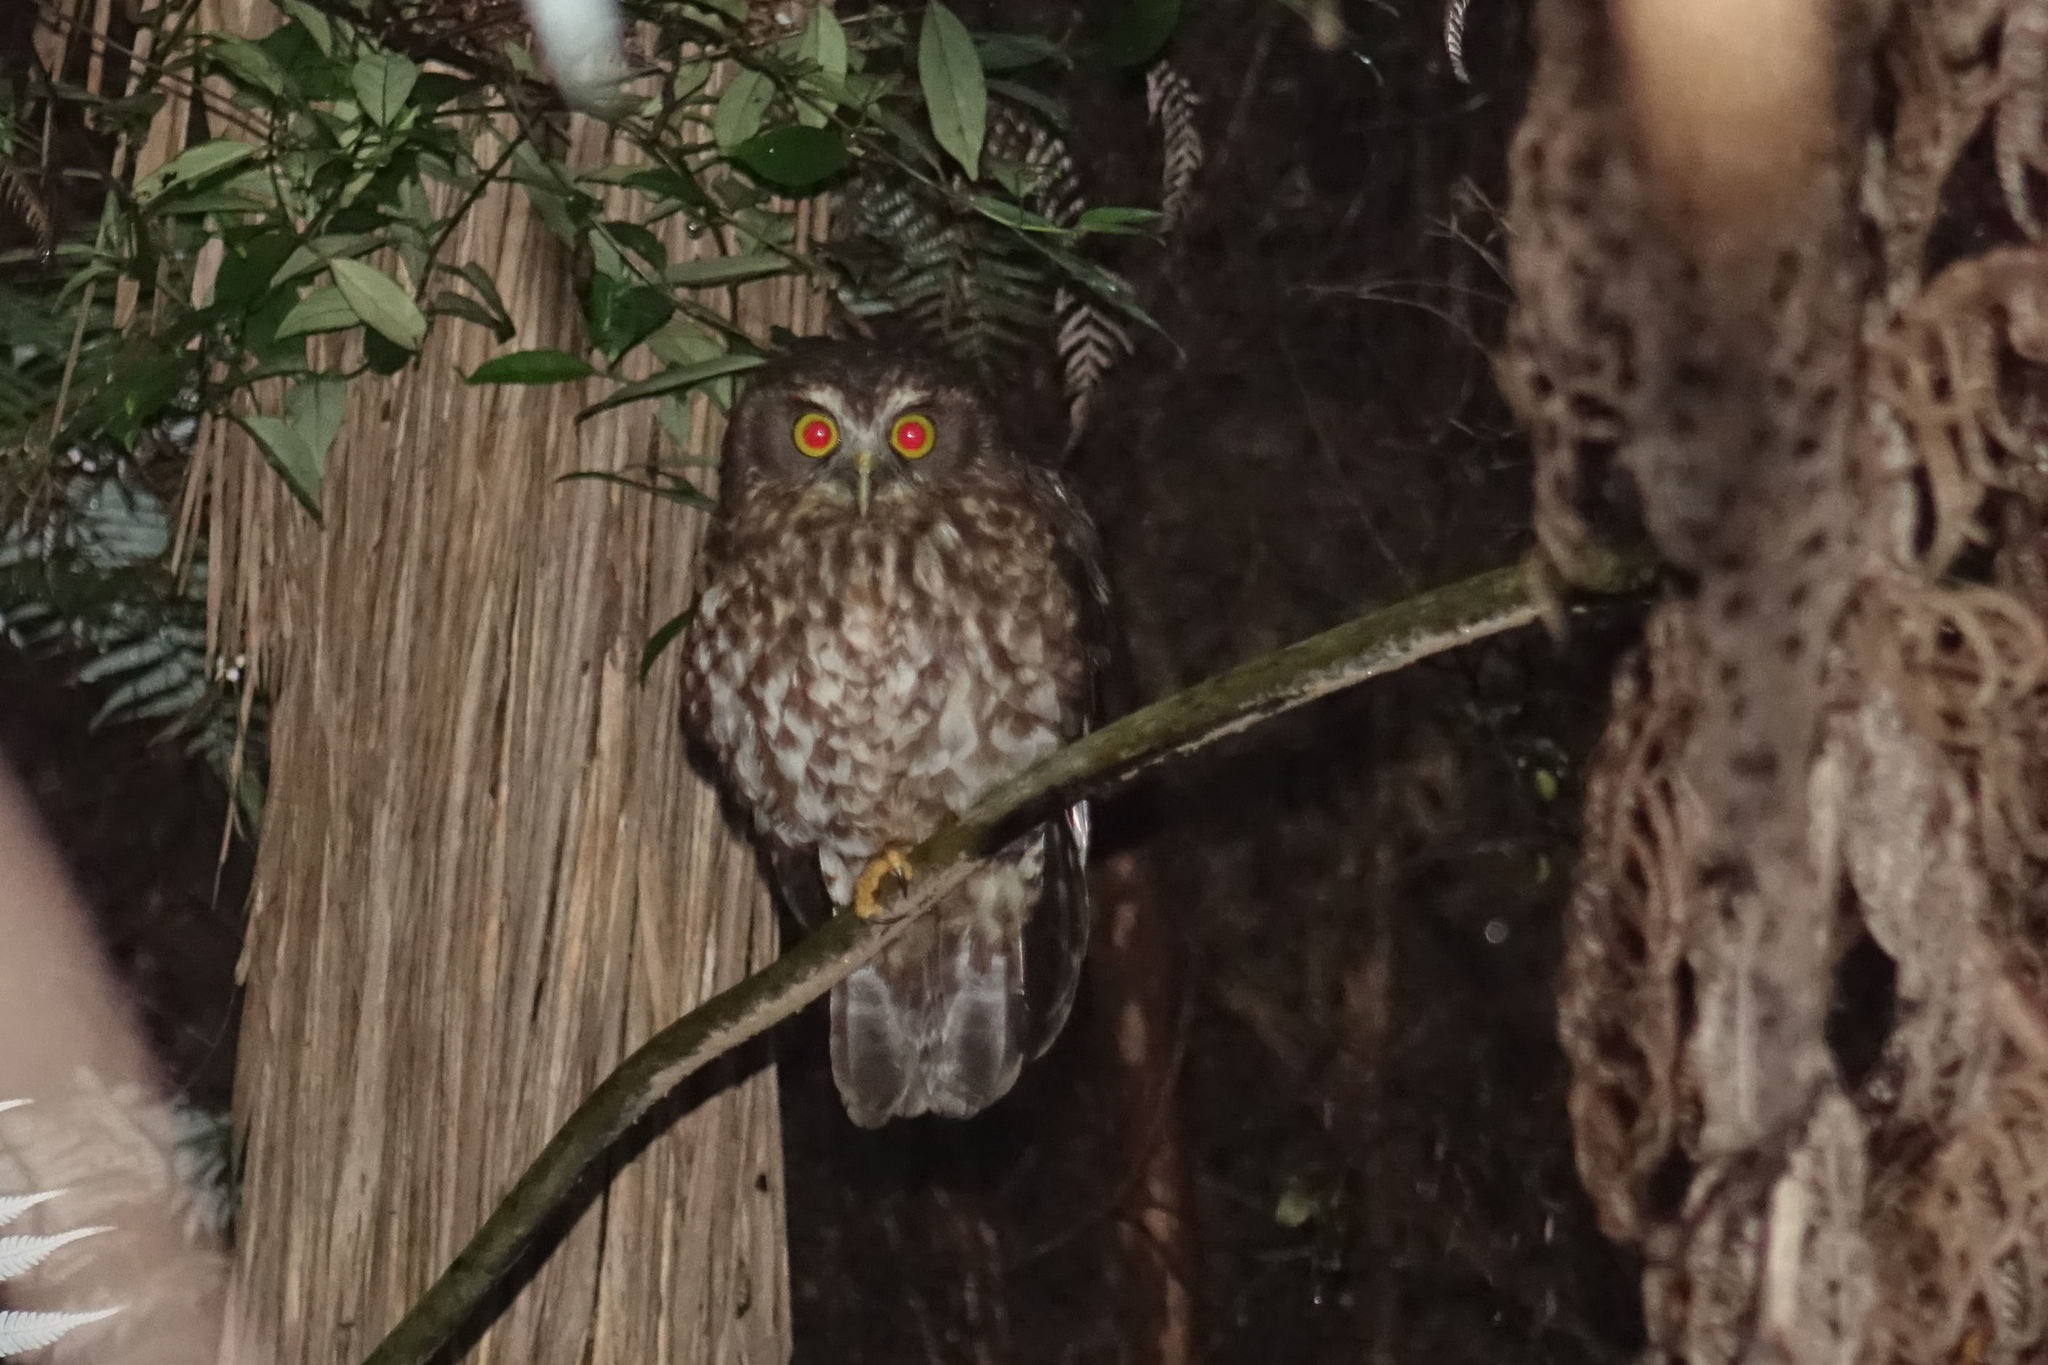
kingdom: Animalia
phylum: Chordata
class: Aves
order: Strigiformes
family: Strigidae
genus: Ninox
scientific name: Ninox novaeseelandiae
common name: Morepork
